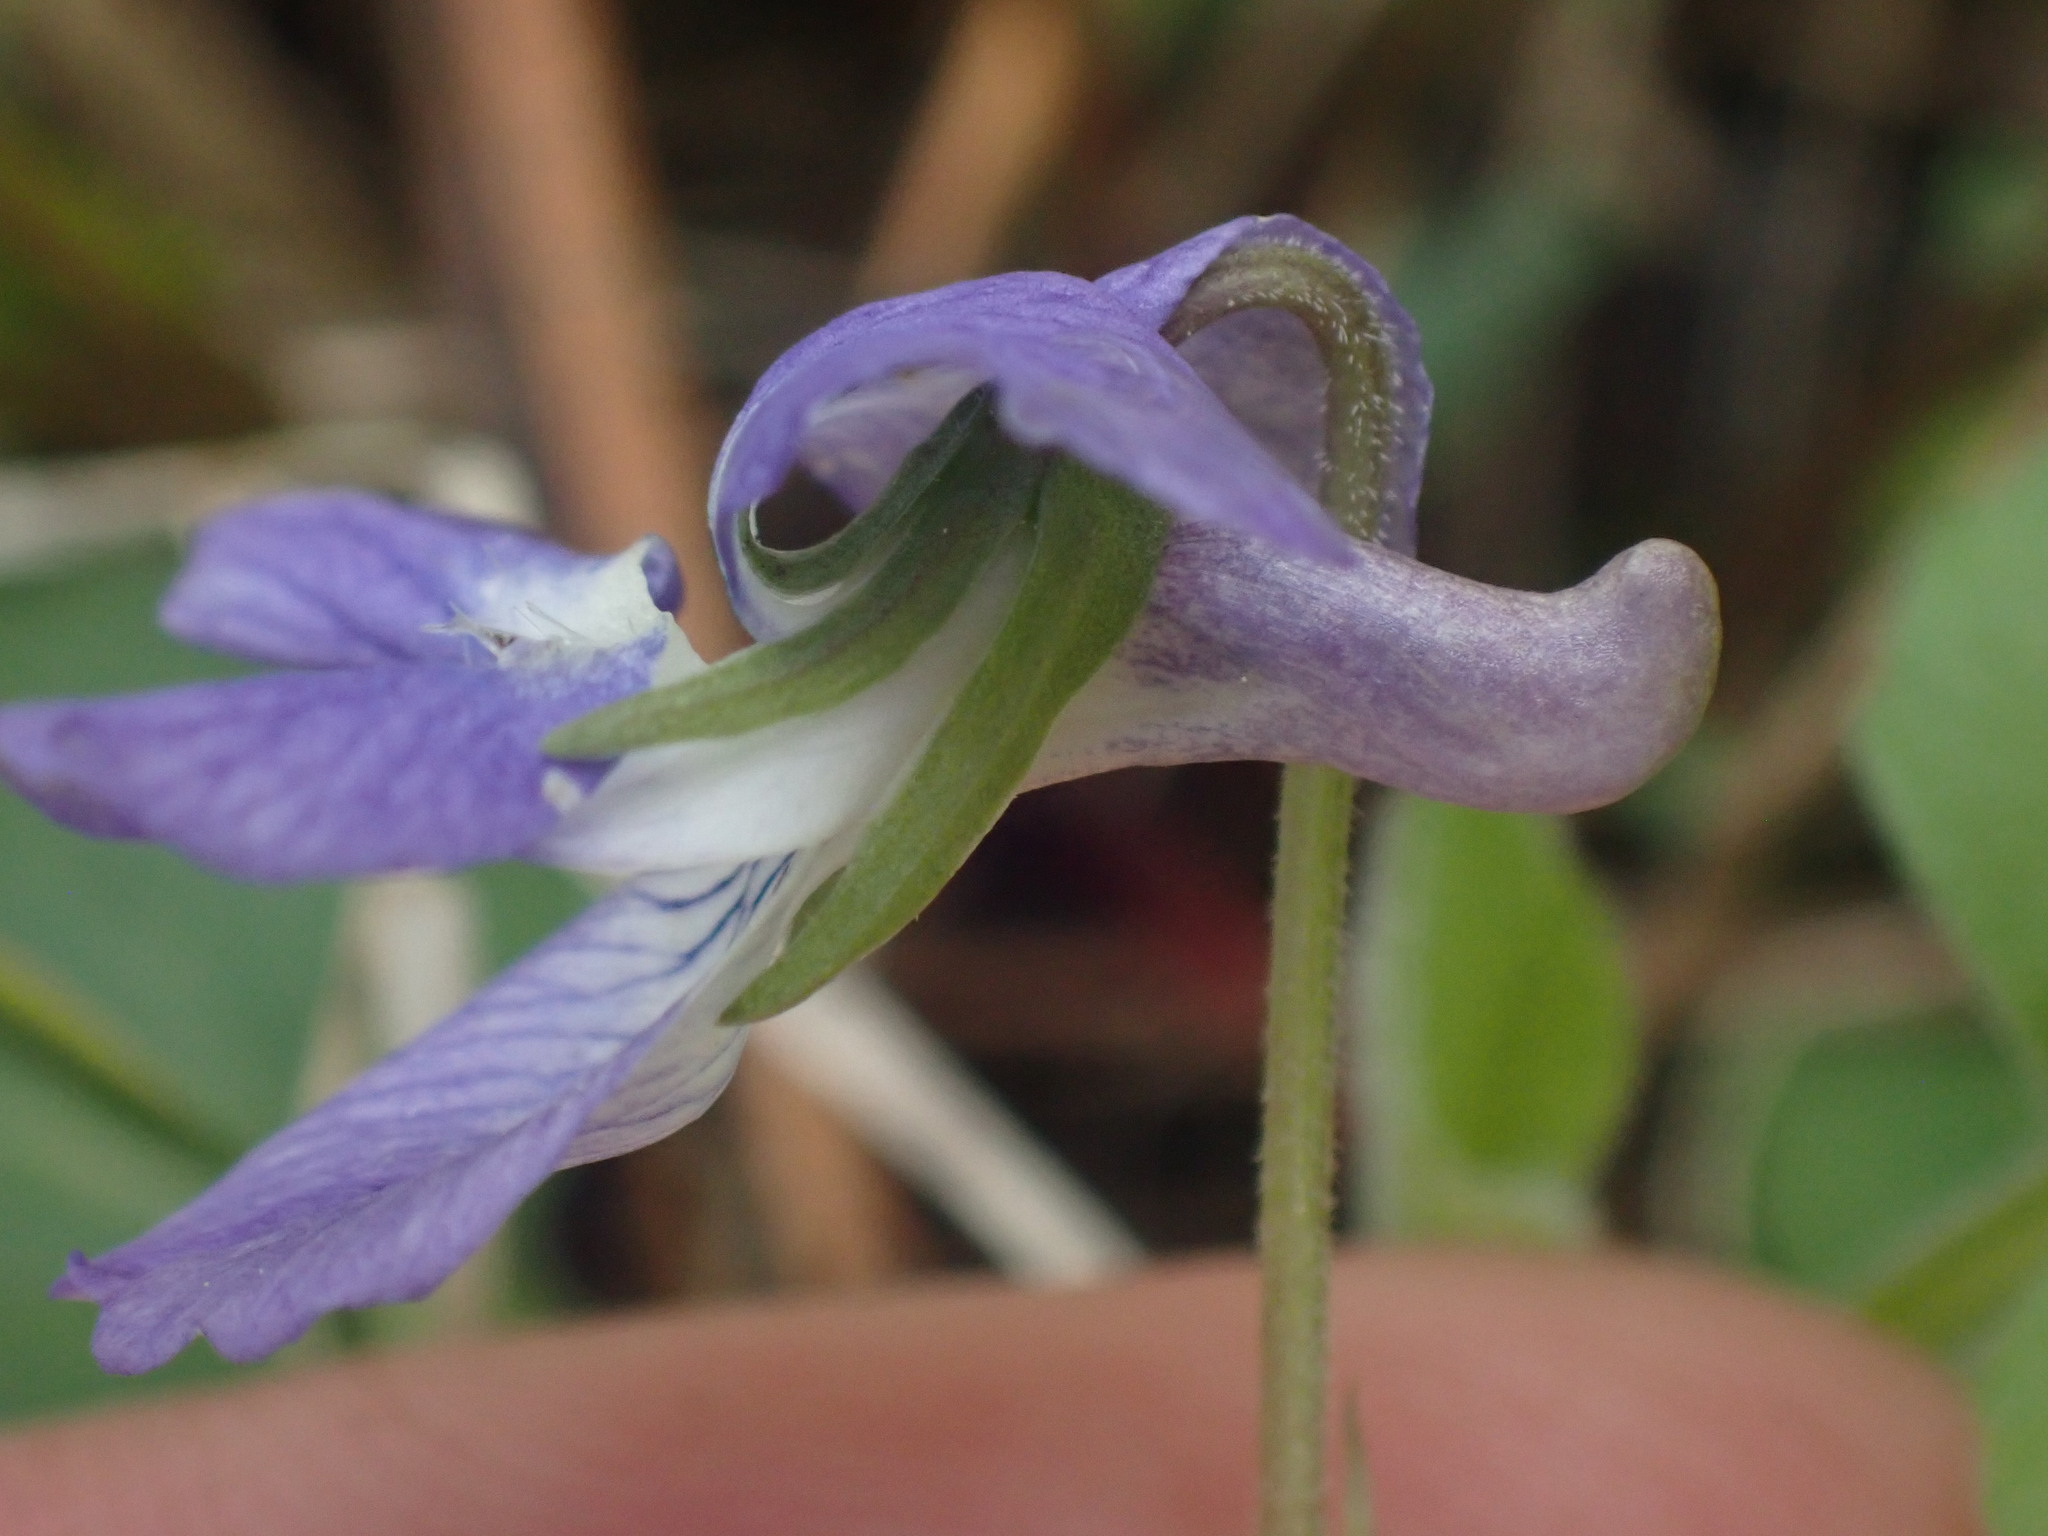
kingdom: Plantae
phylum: Tracheophyta
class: Magnoliopsida
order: Malpighiales
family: Violaceae
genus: Viola
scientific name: Viola adunca
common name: Sand violet
